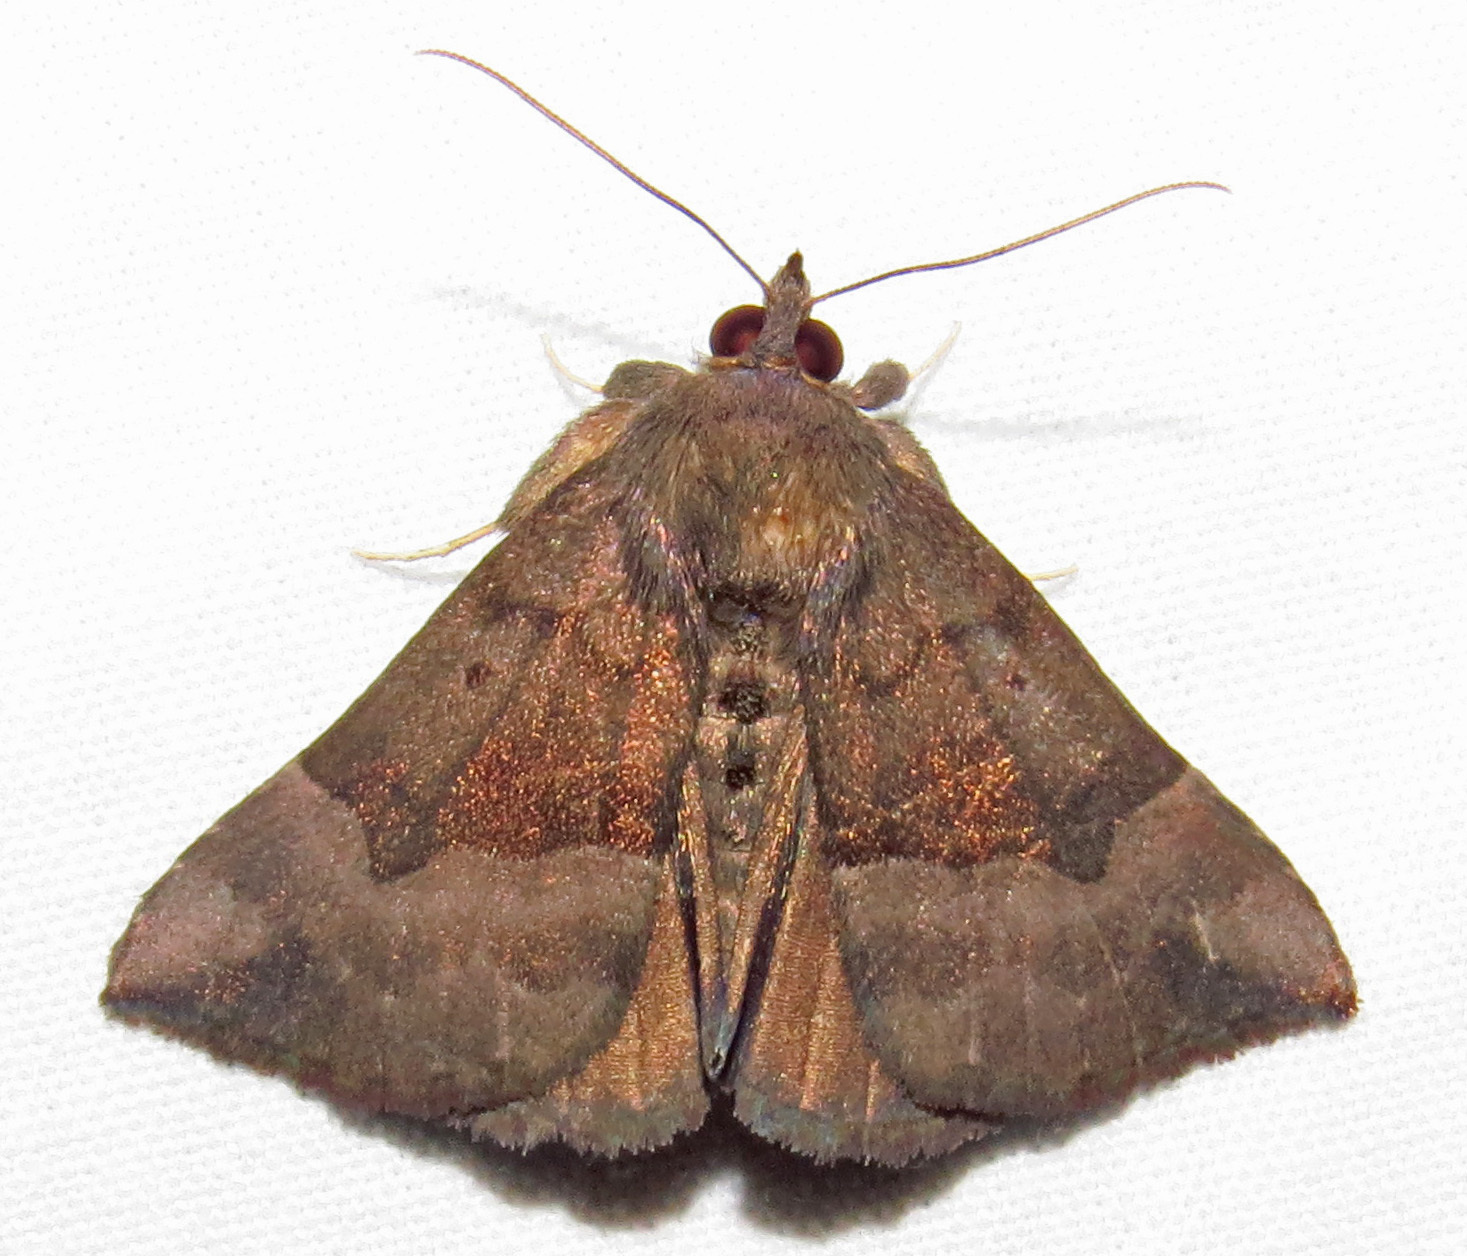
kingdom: Animalia
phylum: Arthropoda
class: Insecta
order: Lepidoptera
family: Erebidae
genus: Hypena
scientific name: Hypena madefactalis
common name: Gray-edged snout
